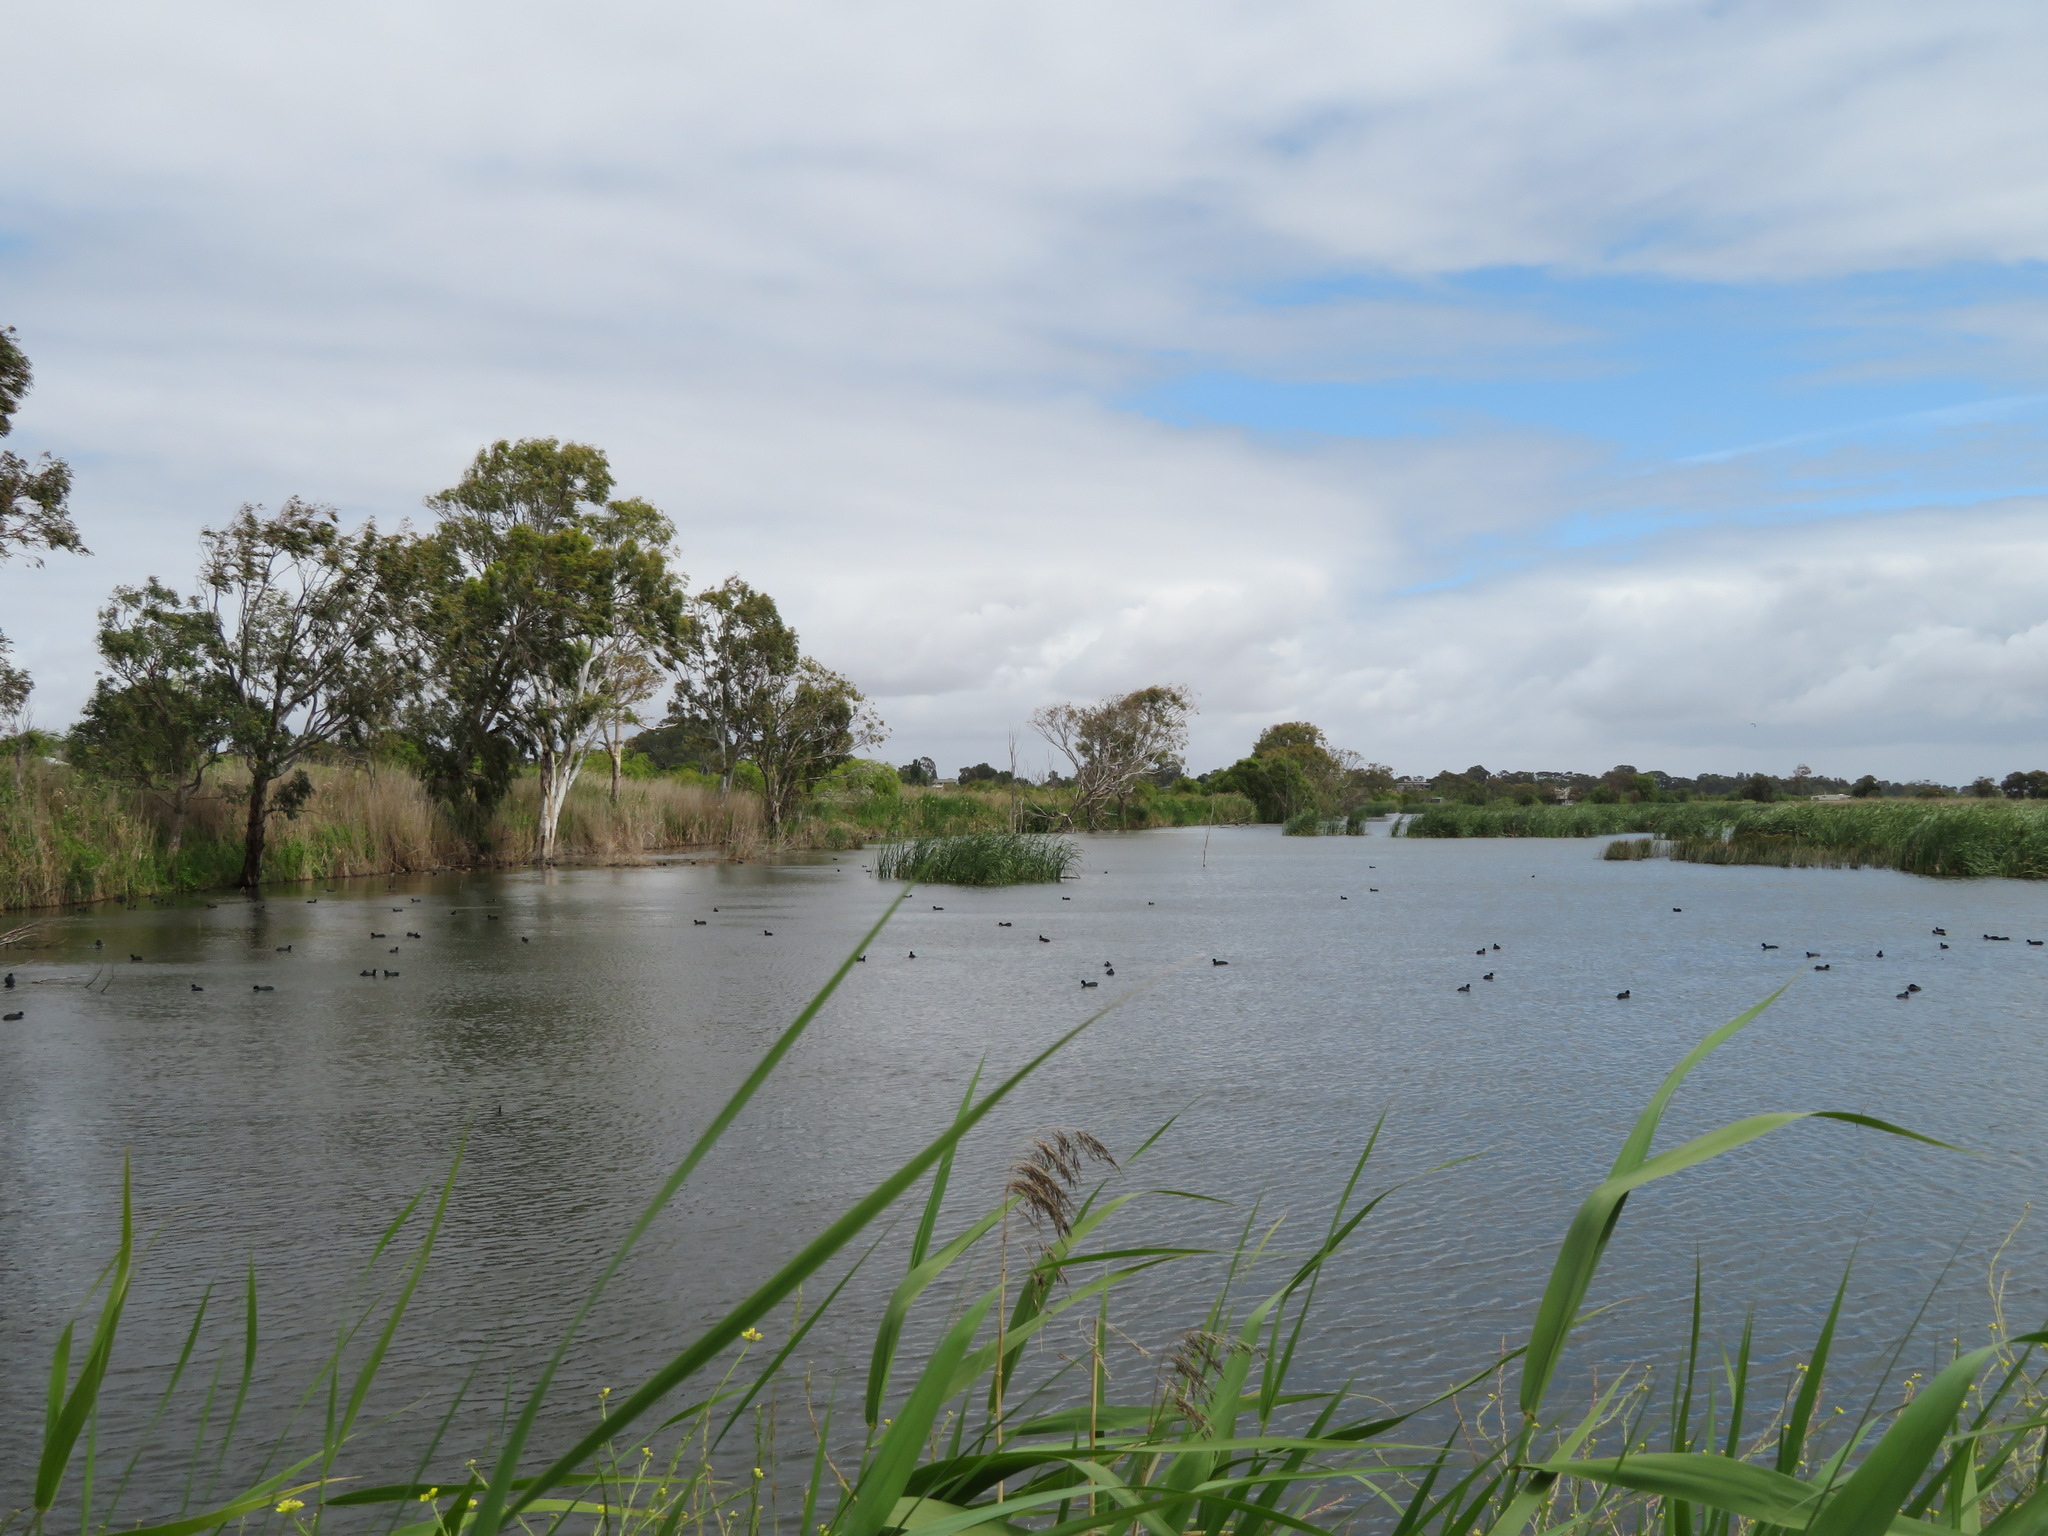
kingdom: Animalia
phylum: Chordata
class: Aves
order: Gruiformes
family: Rallidae
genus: Fulica
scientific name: Fulica atra
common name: Eurasian coot
